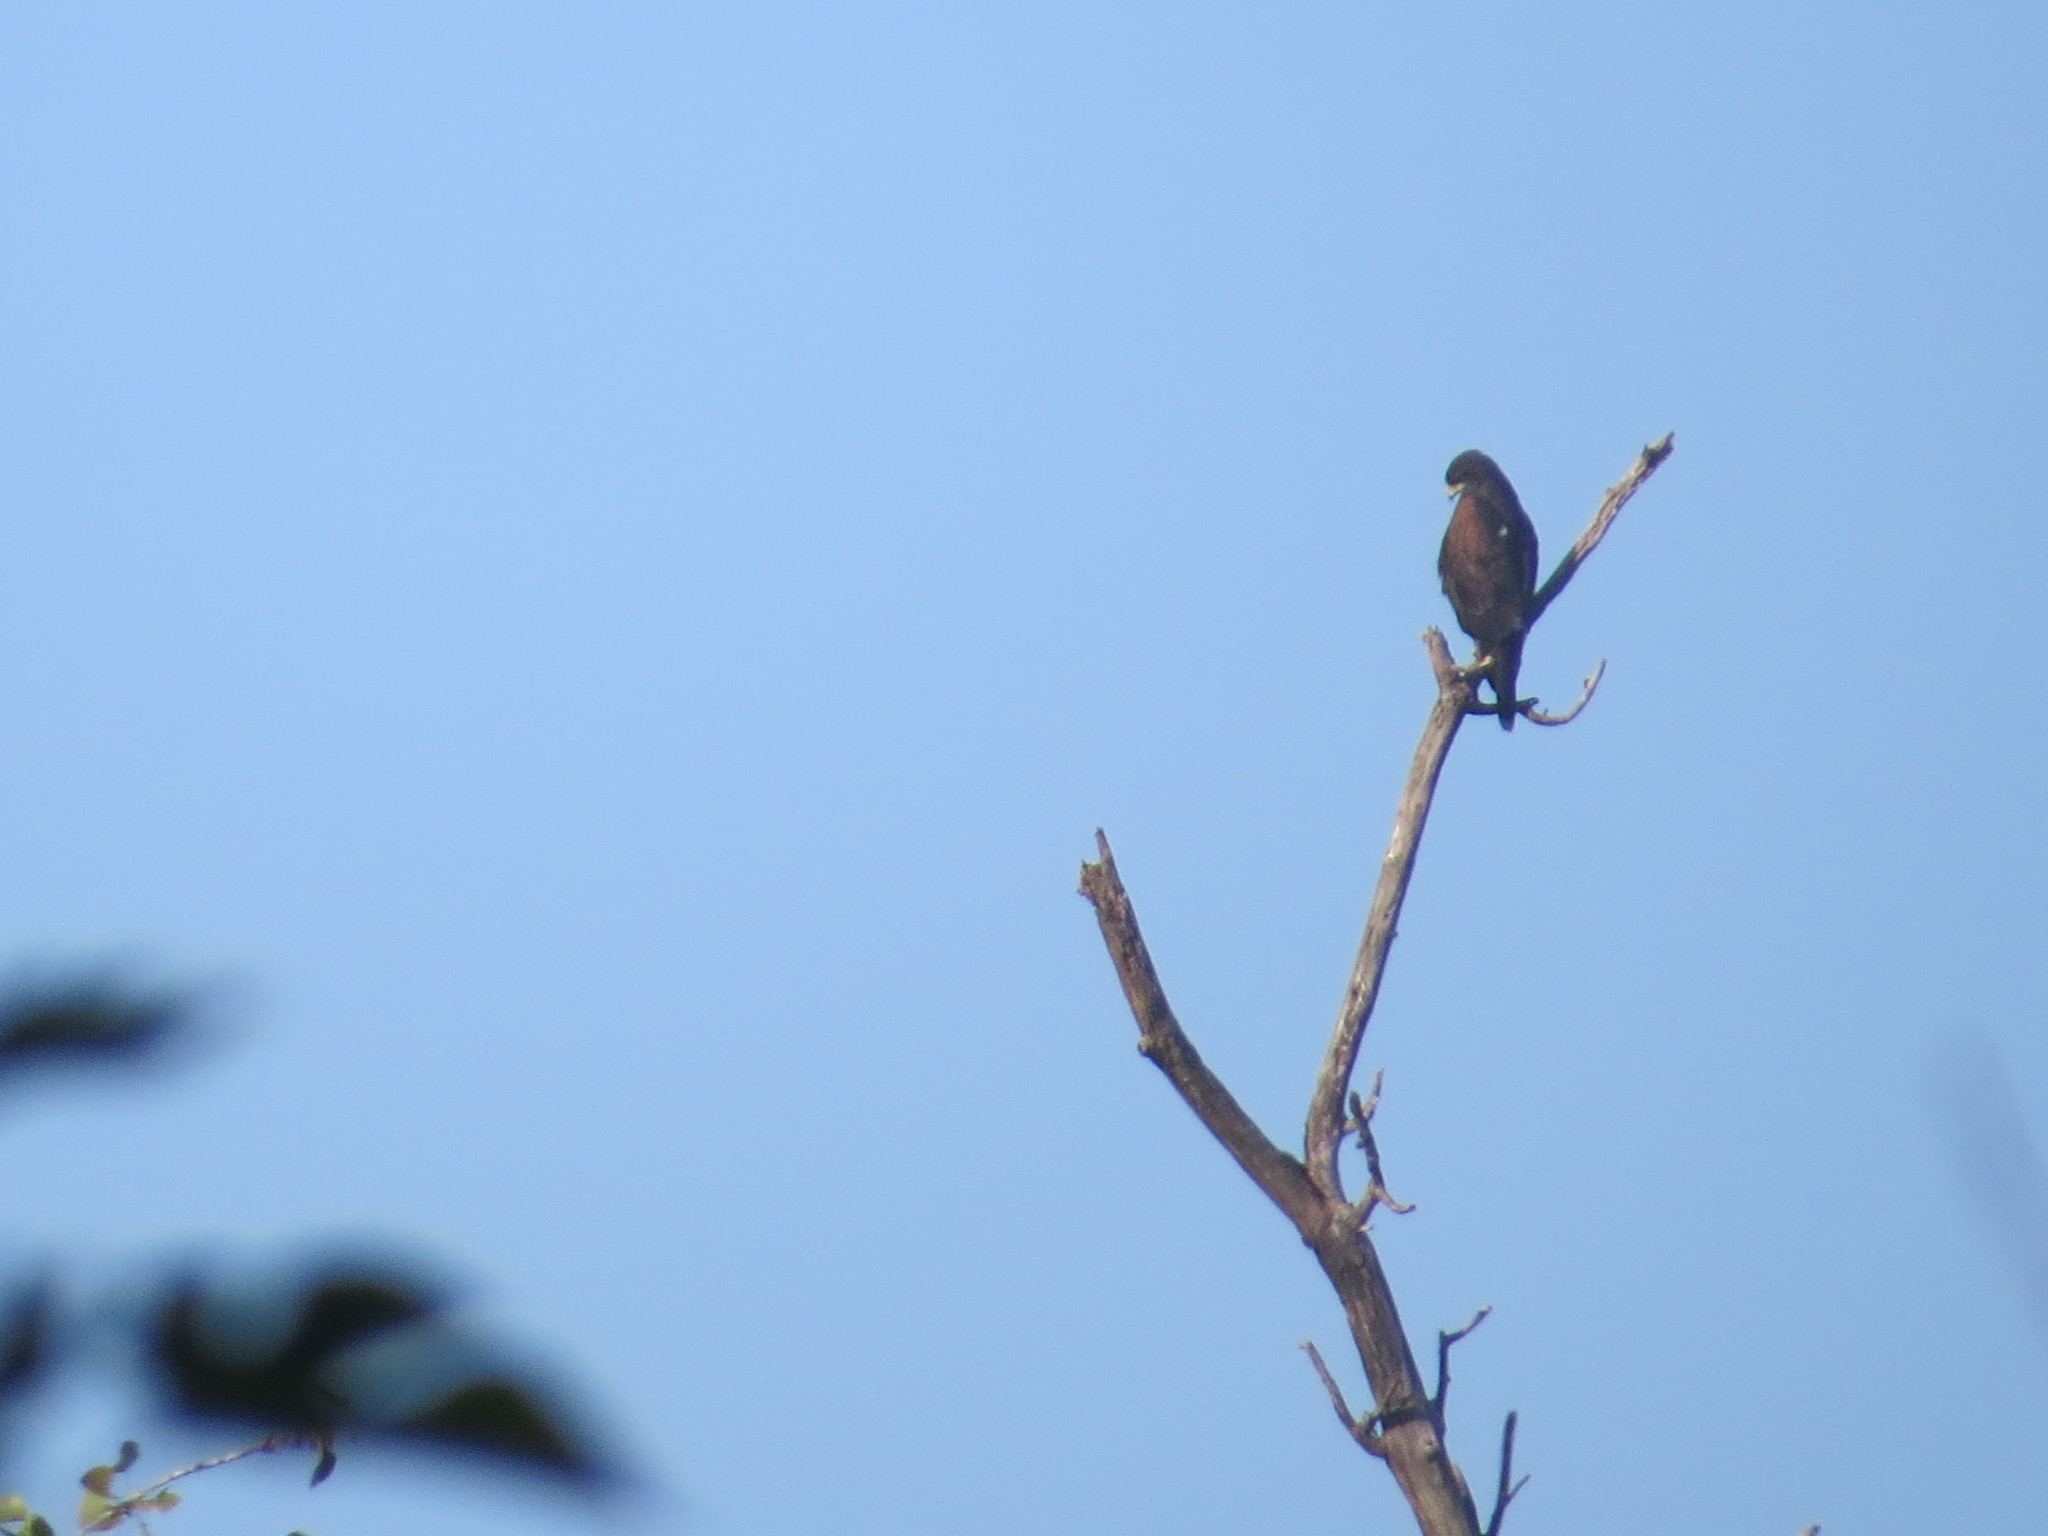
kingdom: Animalia
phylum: Chordata
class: Aves
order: Accipitriformes
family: Accipitridae
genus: Parabuteo
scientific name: Parabuteo unicinctus
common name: Harris's hawk
